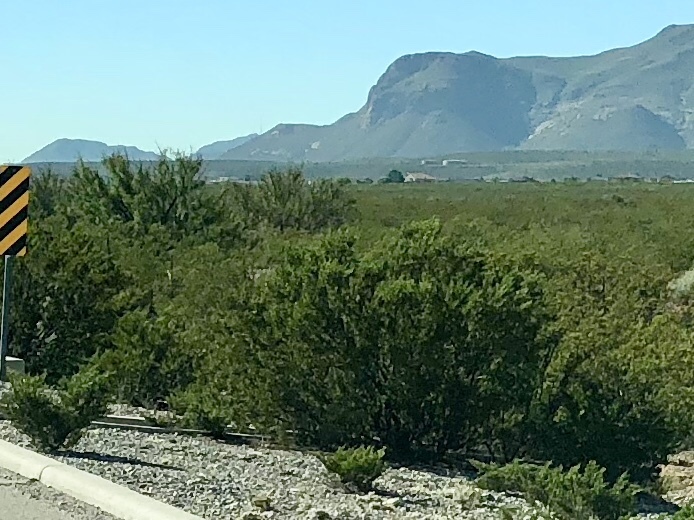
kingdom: Plantae
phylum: Tracheophyta
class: Magnoliopsida
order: Zygophyllales
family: Zygophyllaceae
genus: Larrea
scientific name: Larrea tridentata
